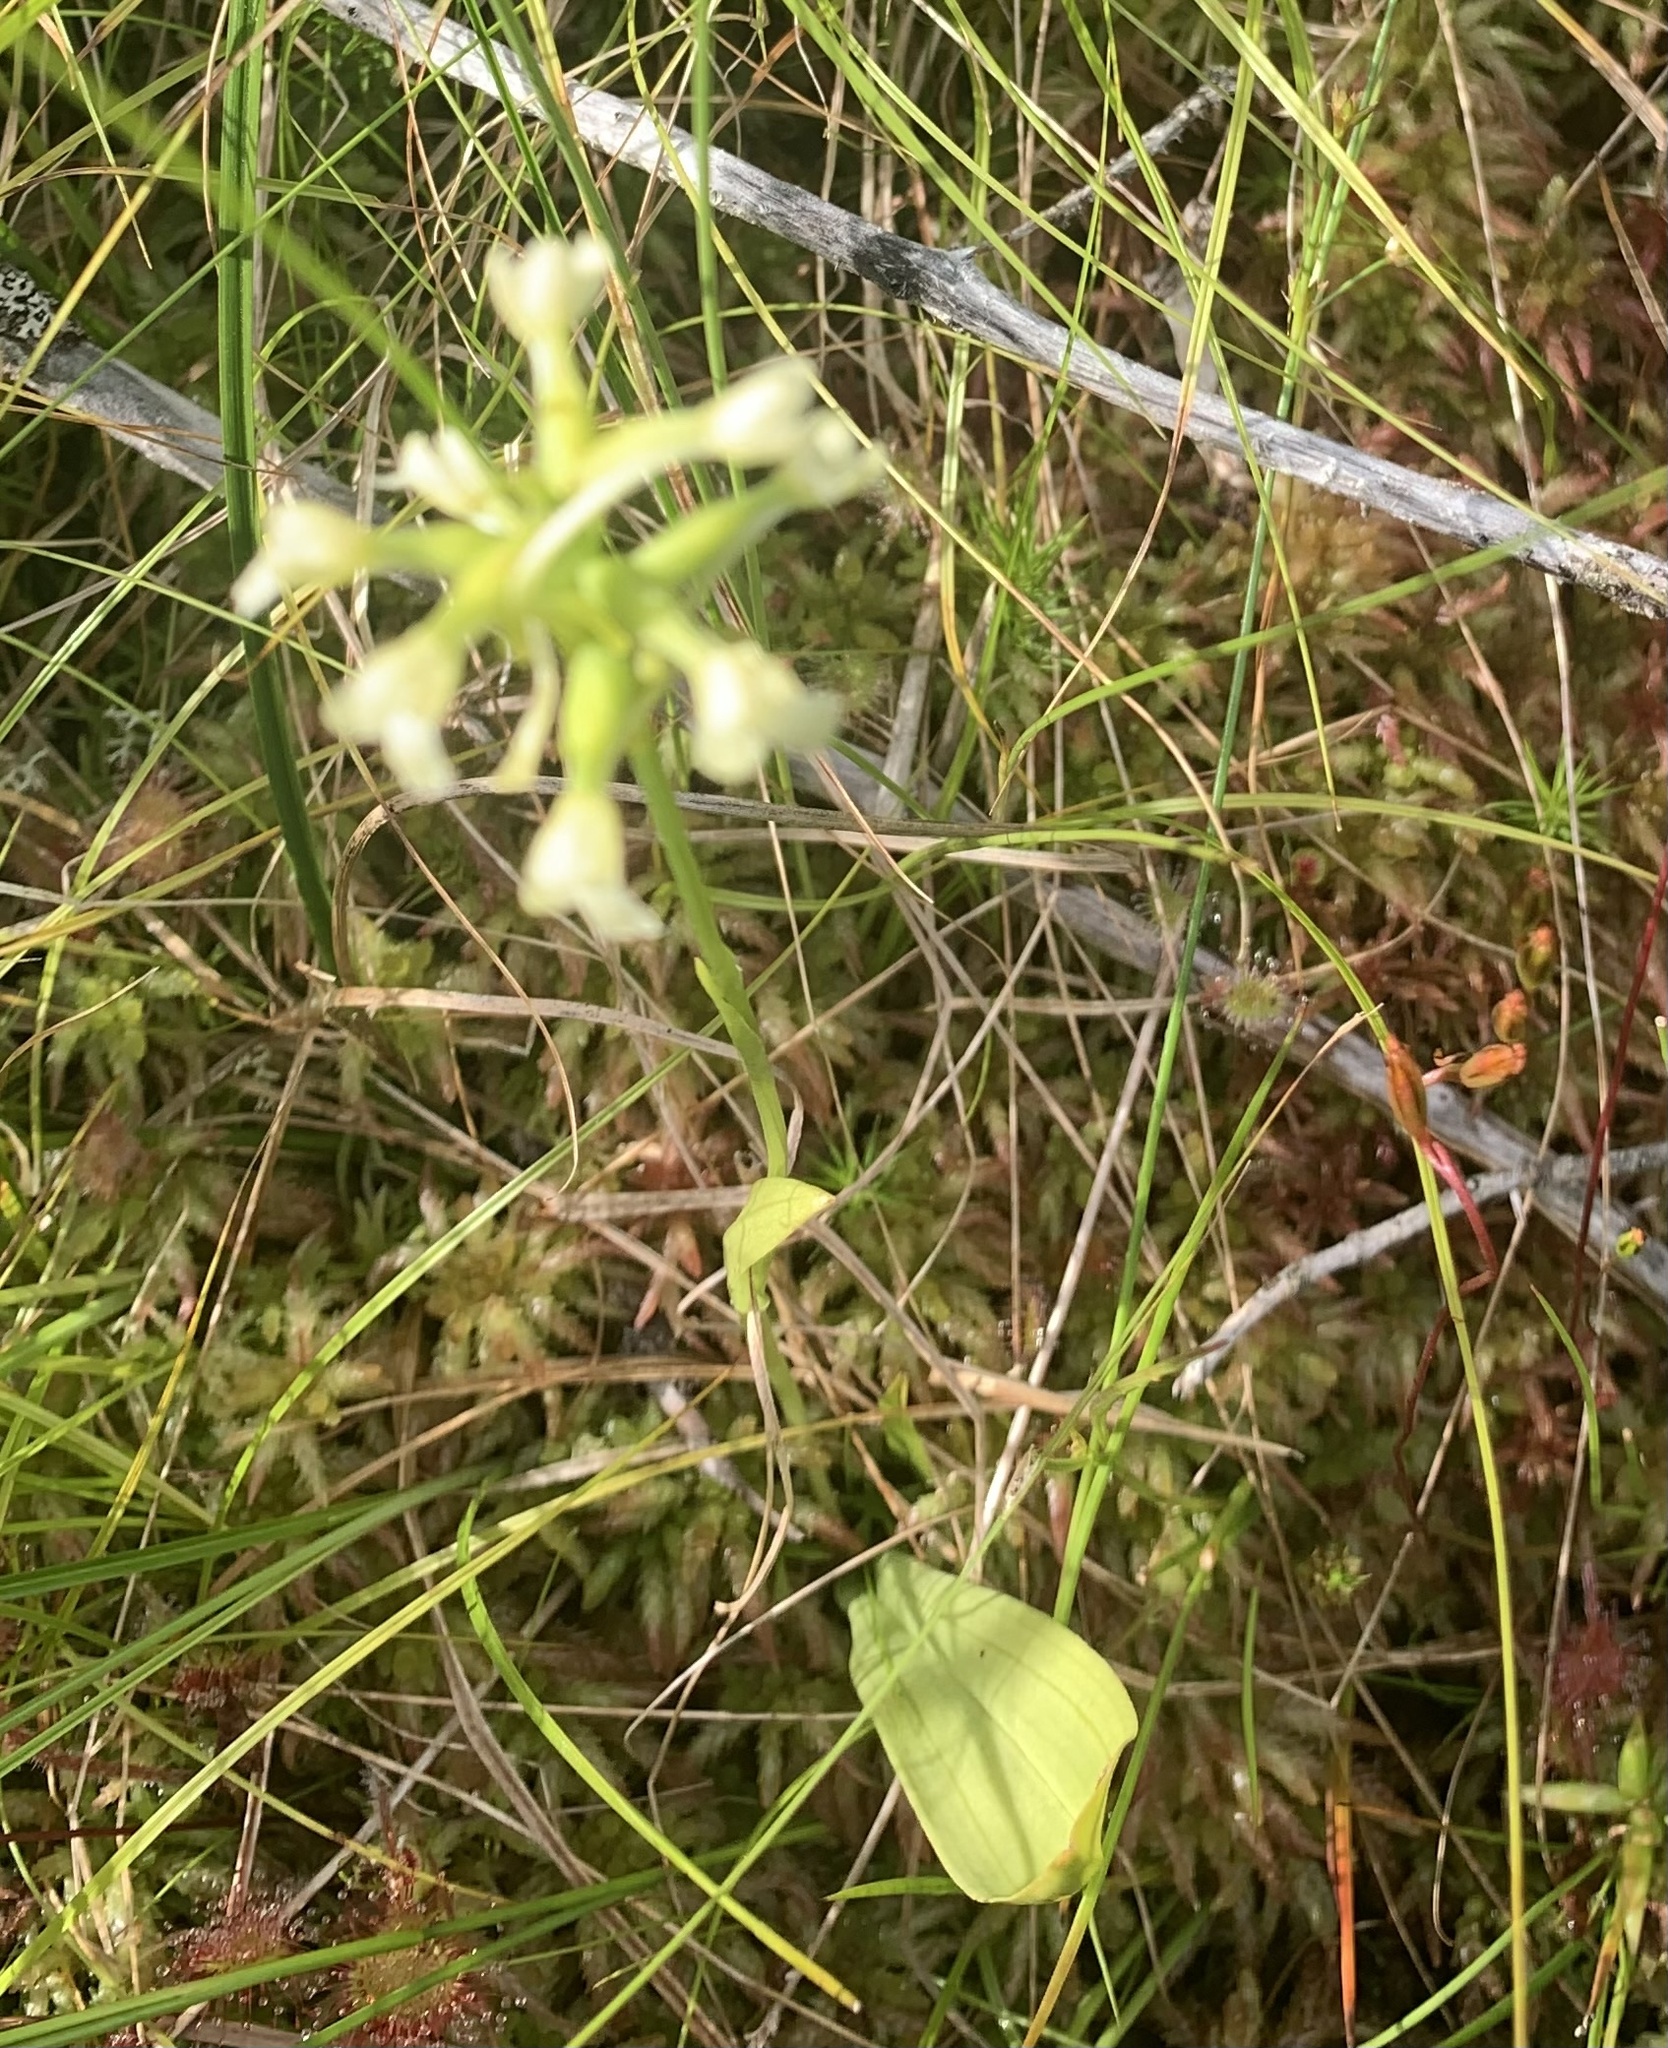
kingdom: Plantae
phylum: Tracheophyta
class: Liliopsida
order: Asparagales
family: Orchidaceae
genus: Platanthera
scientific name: Platanthera clavellata
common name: Club-spur orchid
